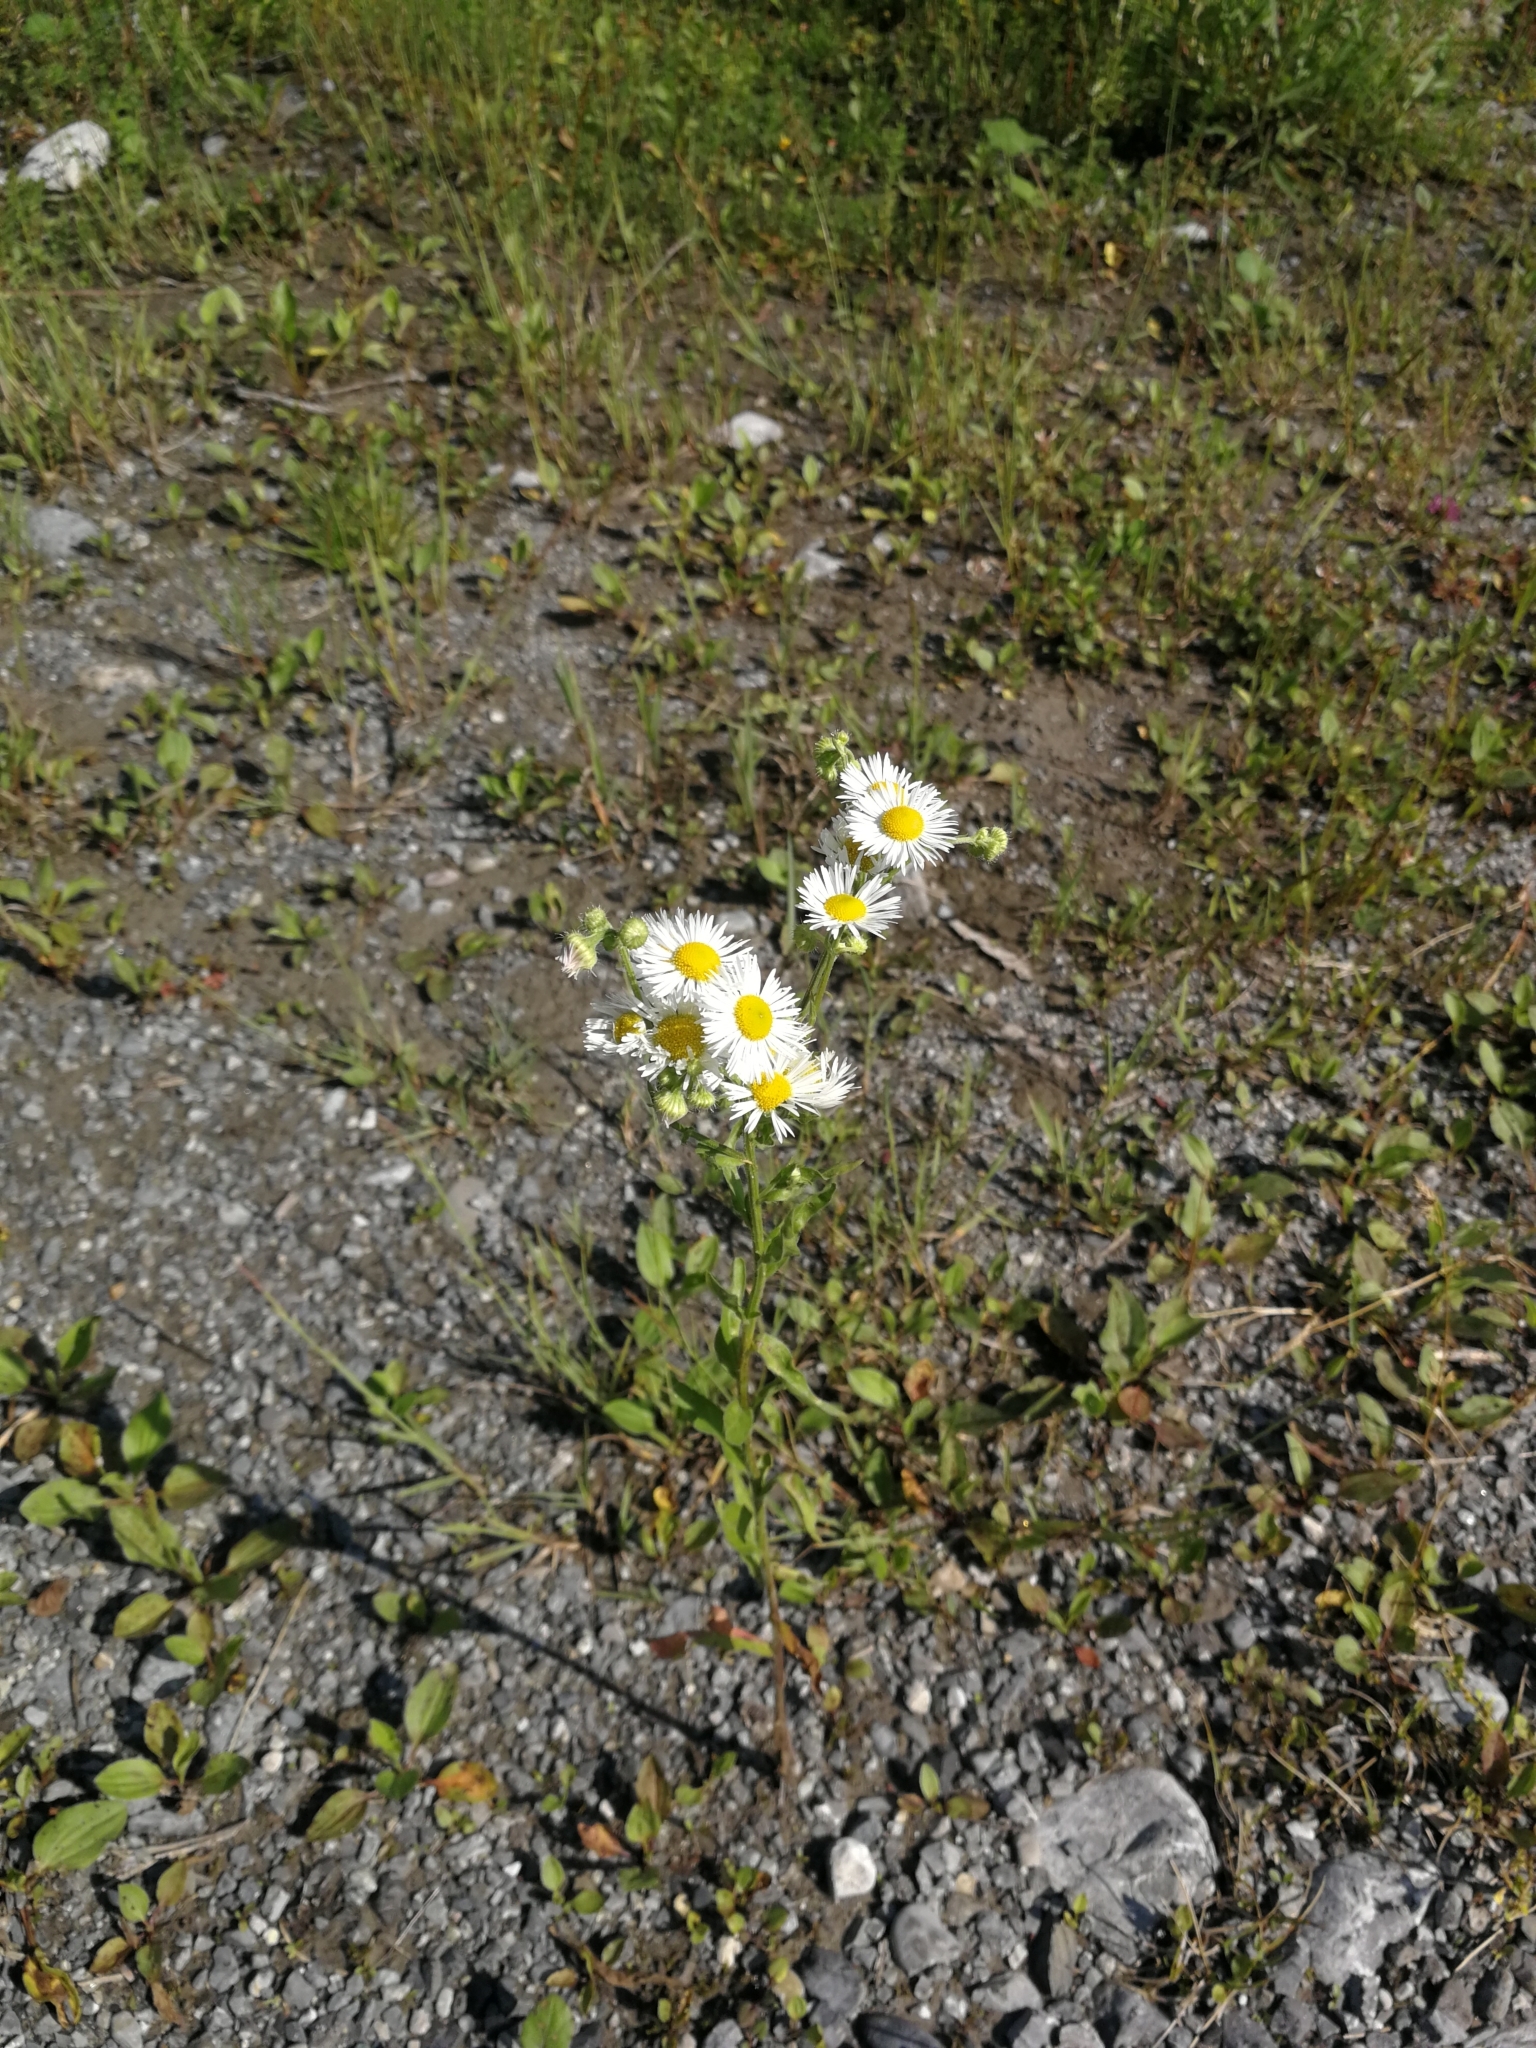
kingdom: Plantae
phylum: Tracheophyta
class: Magnoliopsida
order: Asterales
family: Asteraceae
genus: Erigeron
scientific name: Erigeron annuus
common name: Tall fleabane
